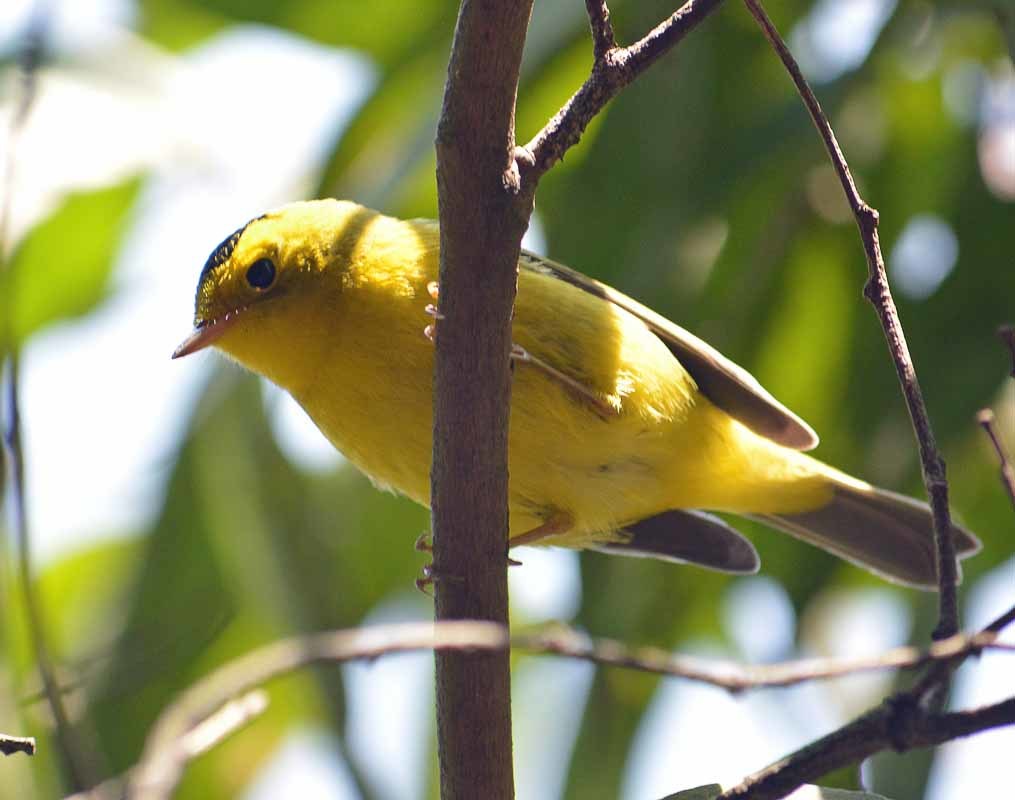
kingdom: Animalia
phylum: Chordata
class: Aves
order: Passeriformes
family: Parulidae
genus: Cardellina
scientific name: Cardellina pusilla
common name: Wilson's warbler
